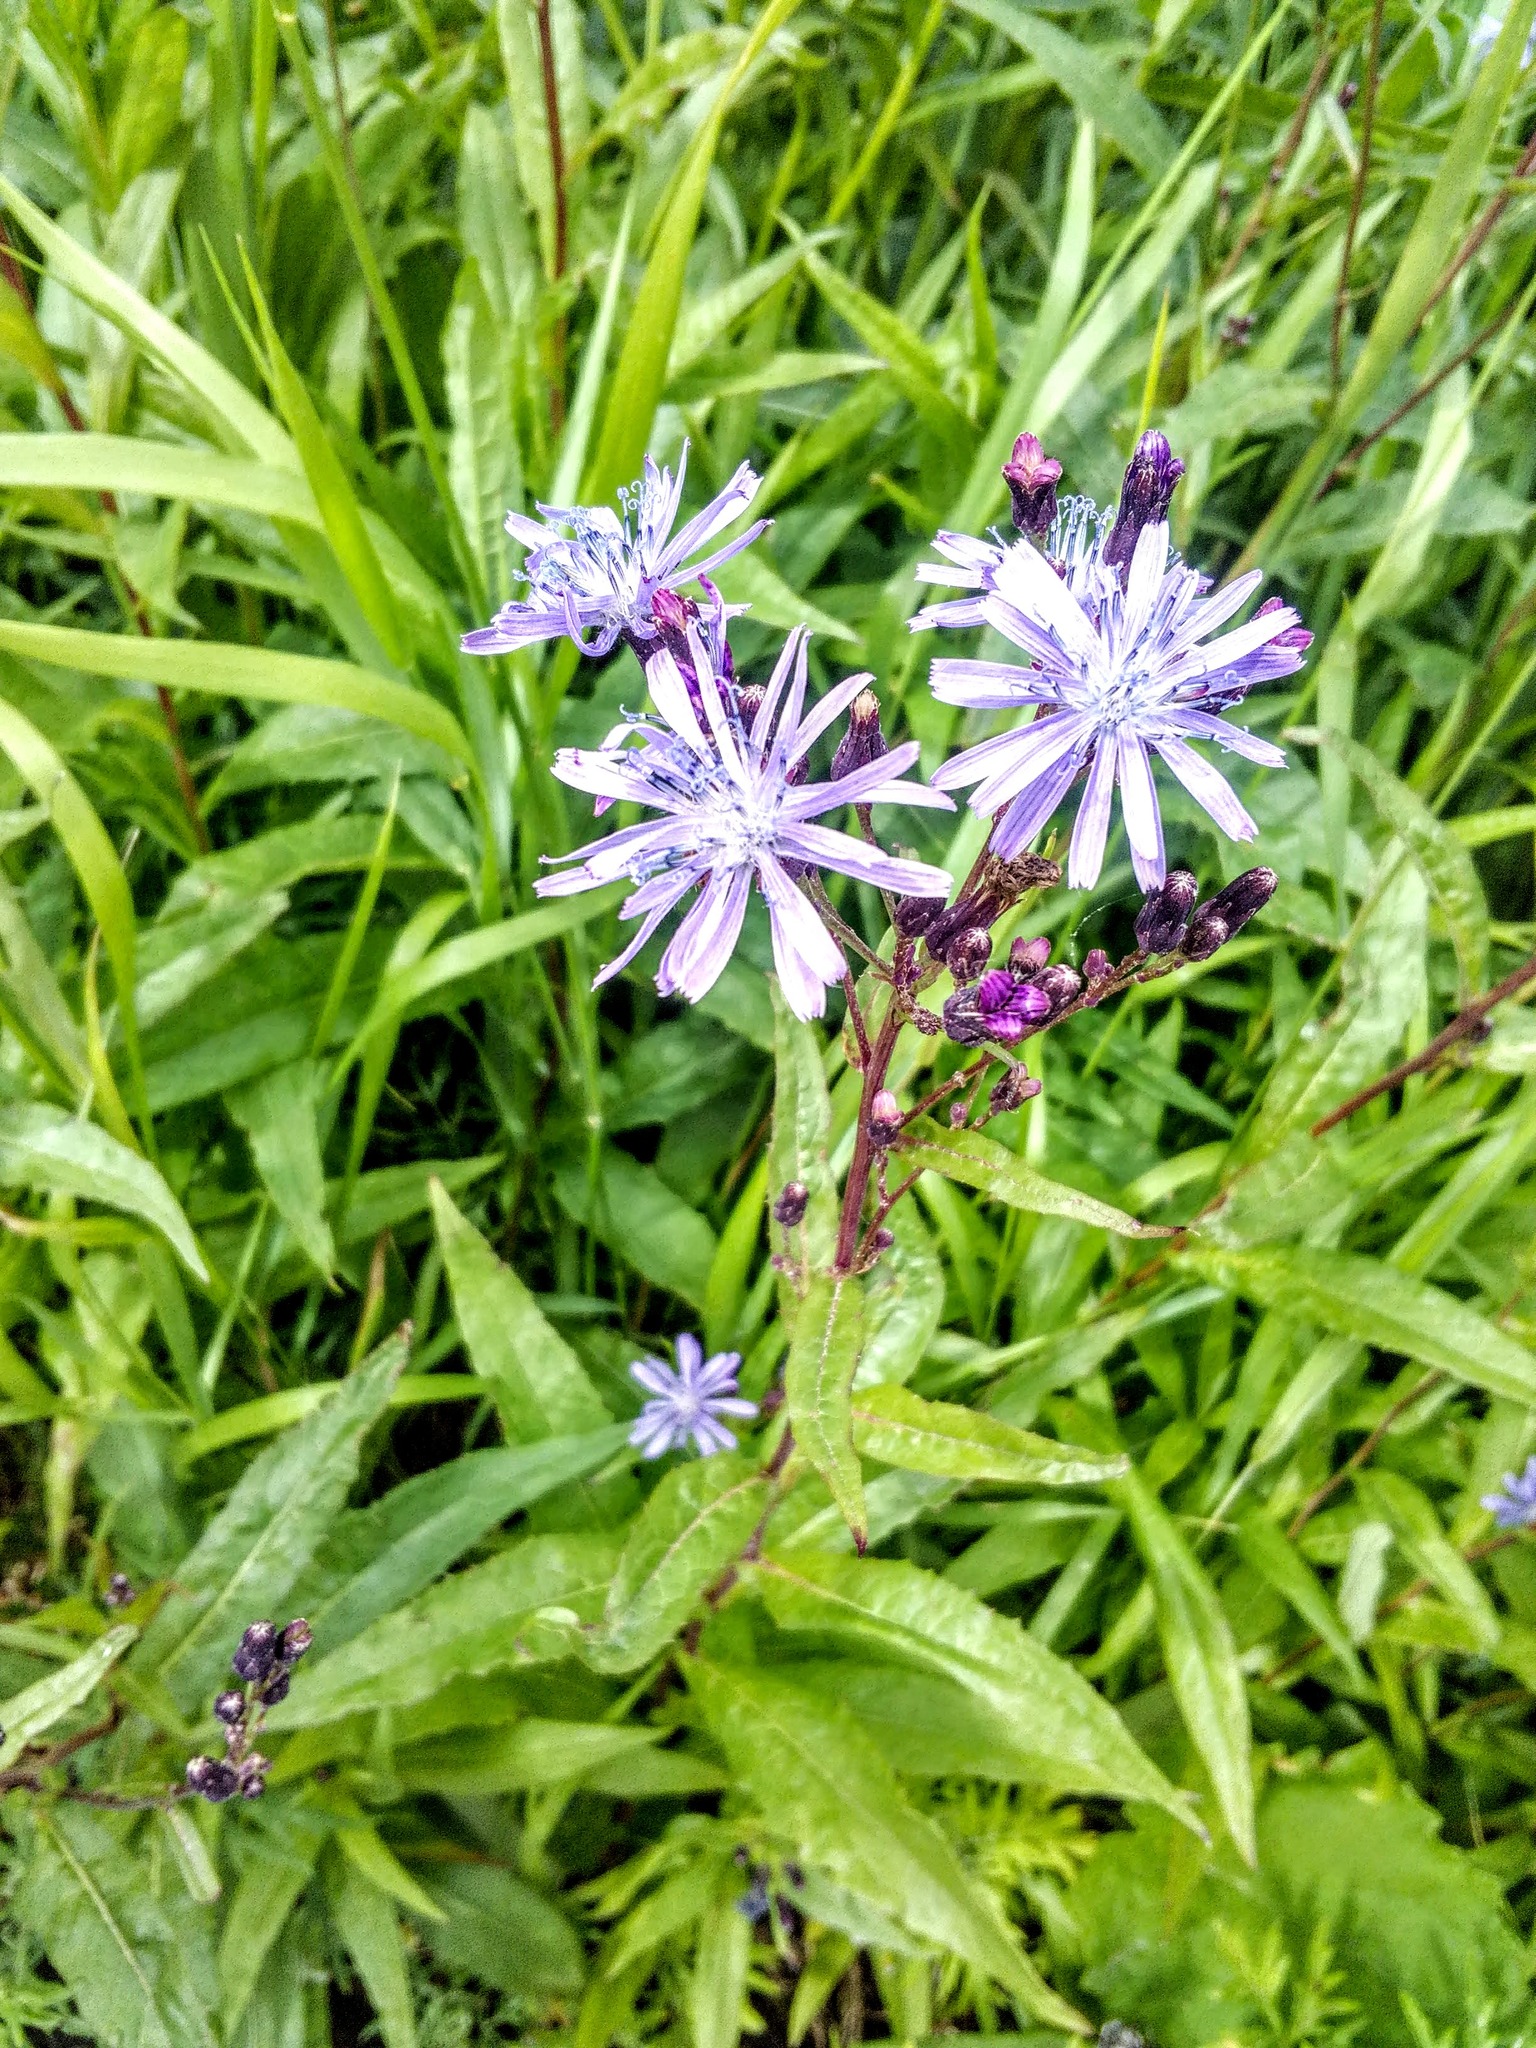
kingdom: Plantae
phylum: Tracheophyta
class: Magnoliopsida
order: Asterales
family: Asteraceae
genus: Lactuca
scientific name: Lactuca sibirica
